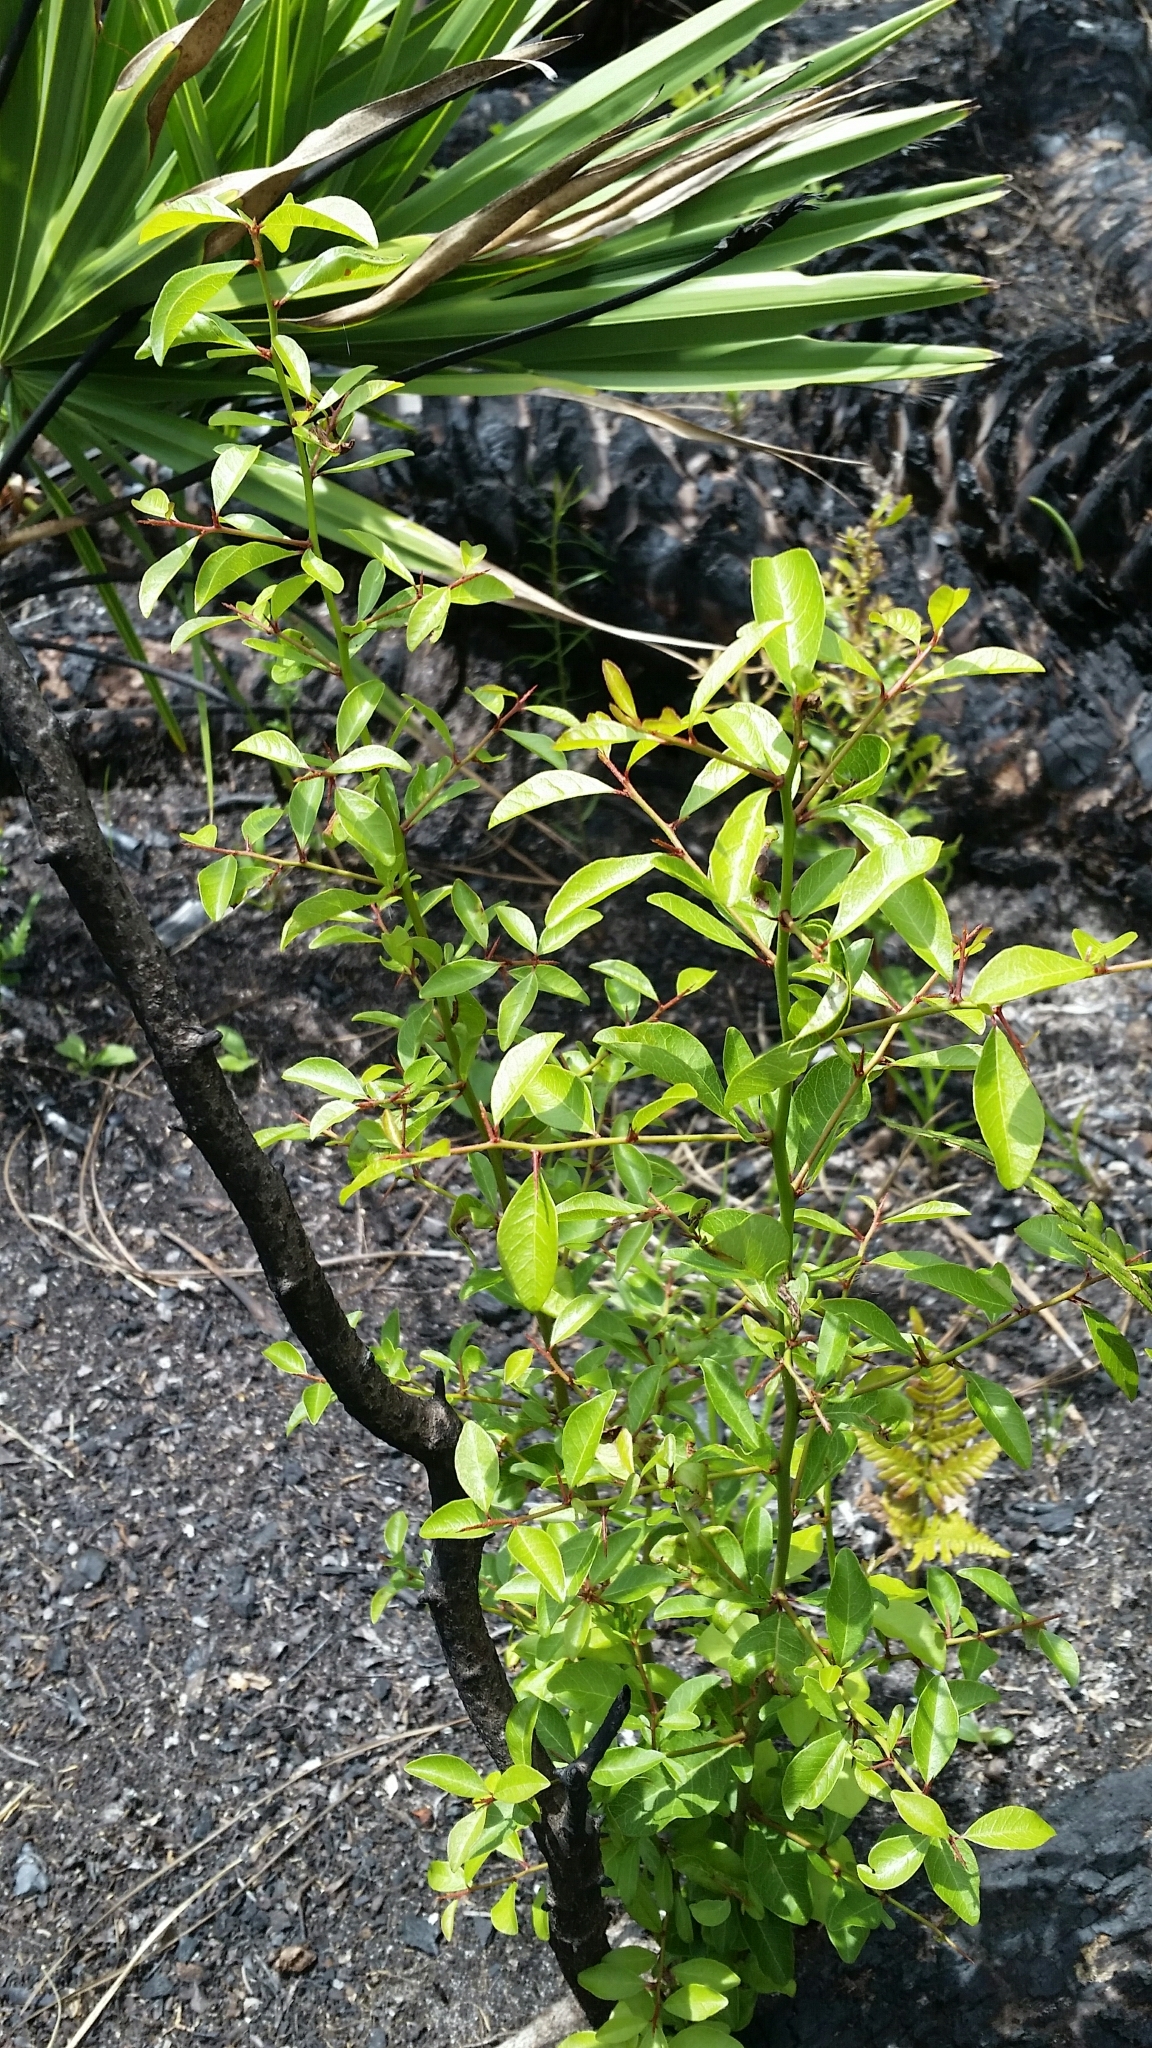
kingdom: Plantae
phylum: Tracheophyta
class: Magnoliopsida
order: Santalales
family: Ximeniaceae
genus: Ximenia
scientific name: Ximenia americana
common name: Tallowwood
